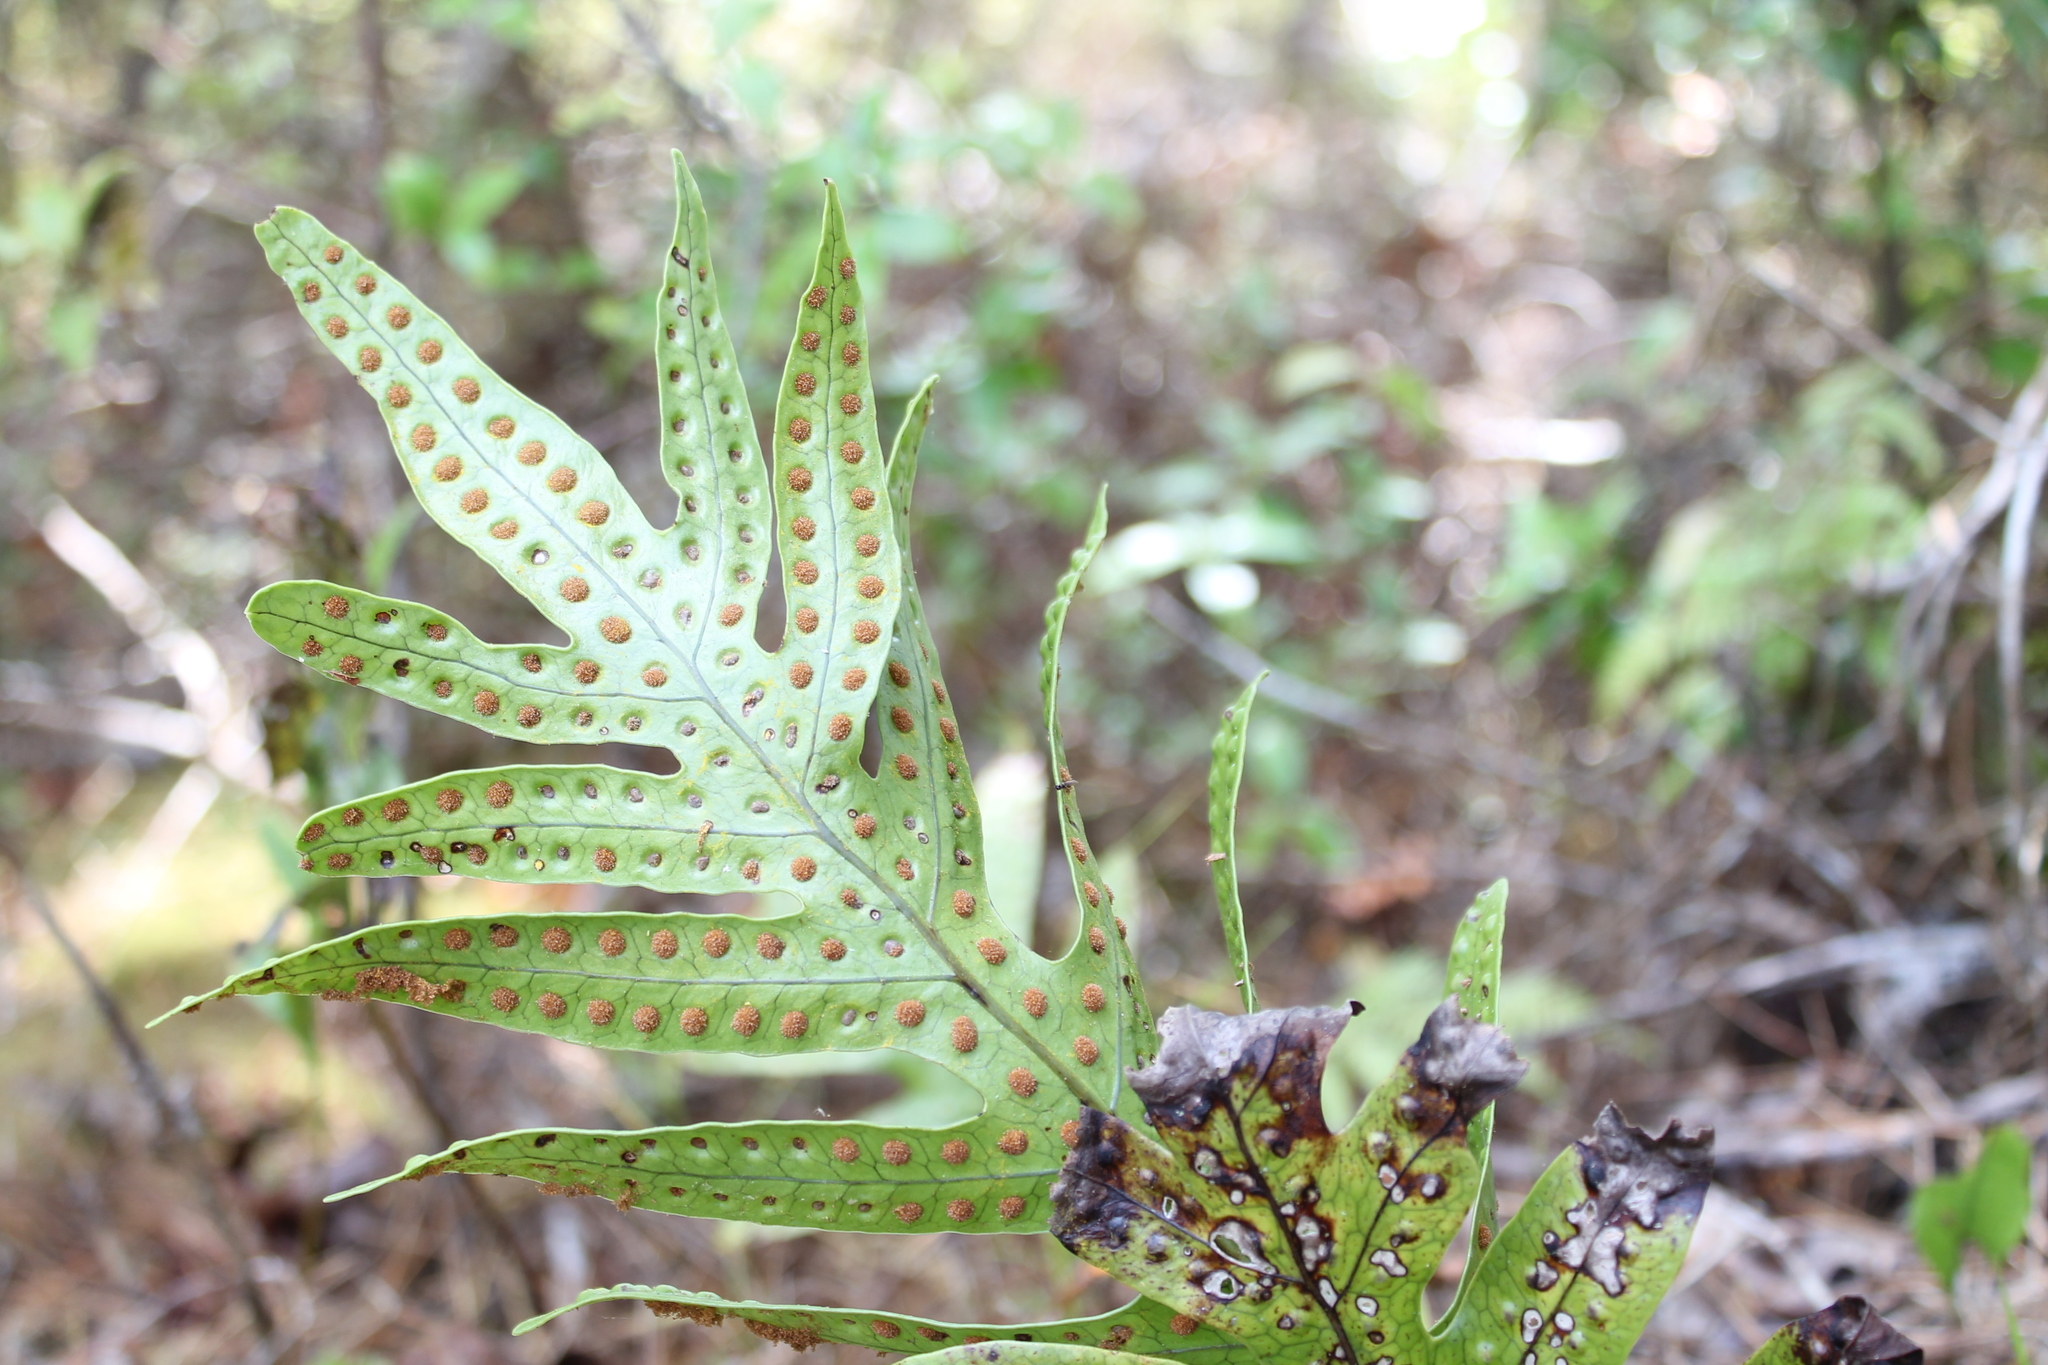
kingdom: Plantae
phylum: Tracheophyta
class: Polypodiopsida
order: Polypodiales
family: Polypodiaceae
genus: Lecanopteris
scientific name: Lecanopteris pustulata
